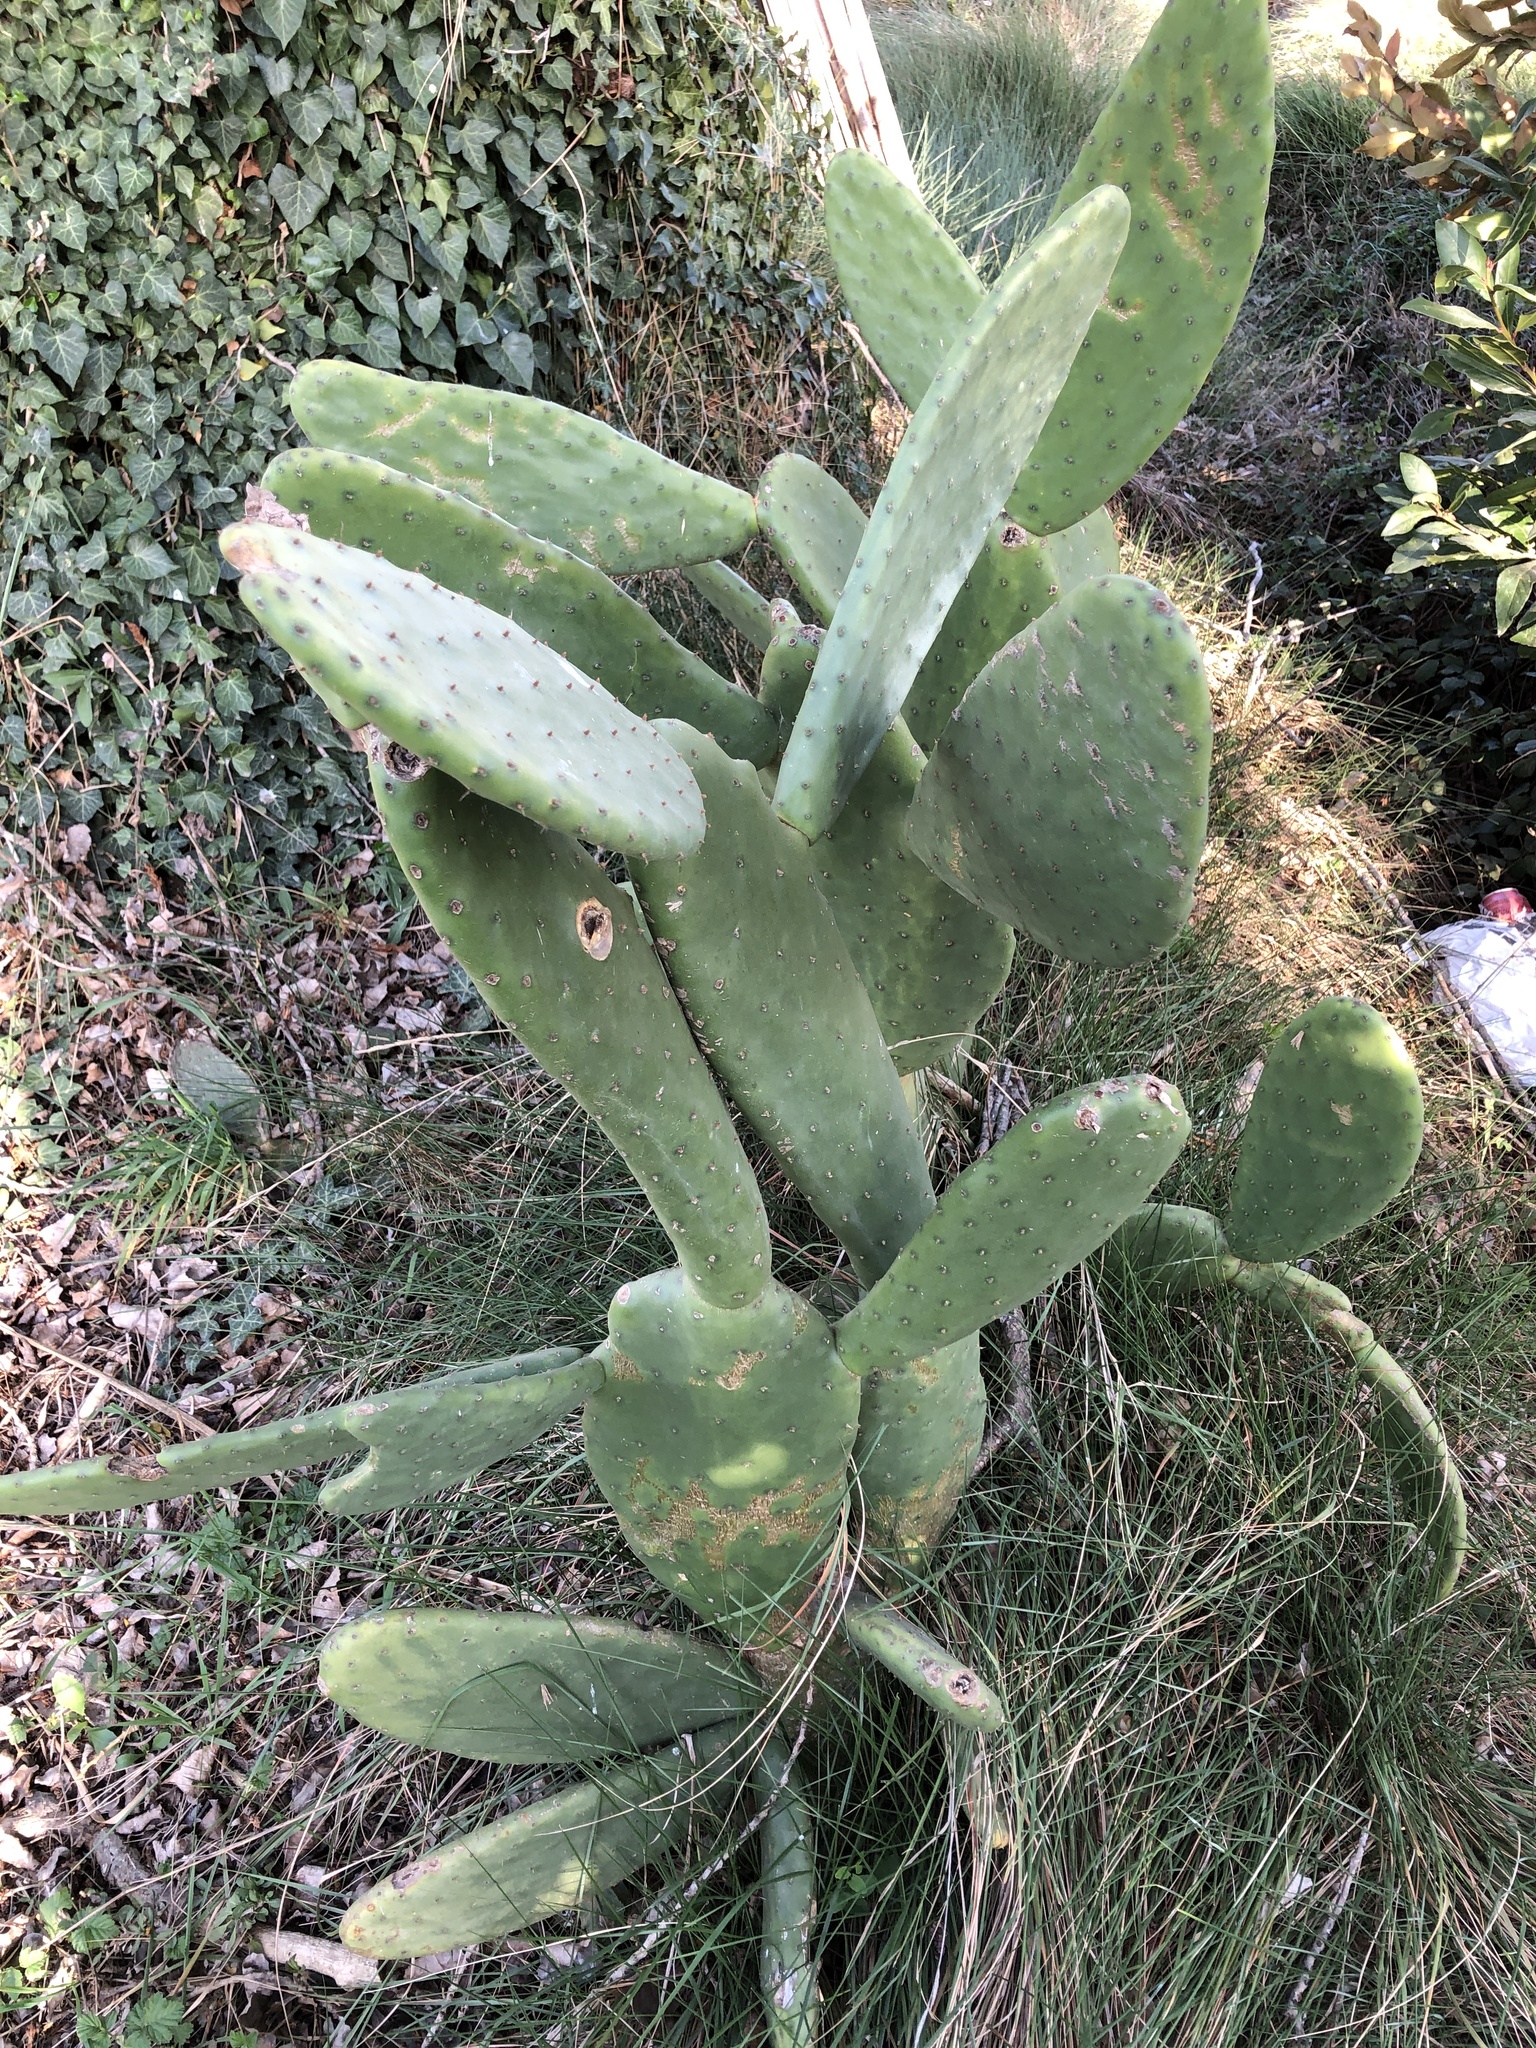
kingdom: Plantae
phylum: Tracheophyta
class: Magnoliopsida
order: Caryophyllales
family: Cactaceae
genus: Opuntia
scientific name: Opuntia ficus-indica
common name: Barbary fig
